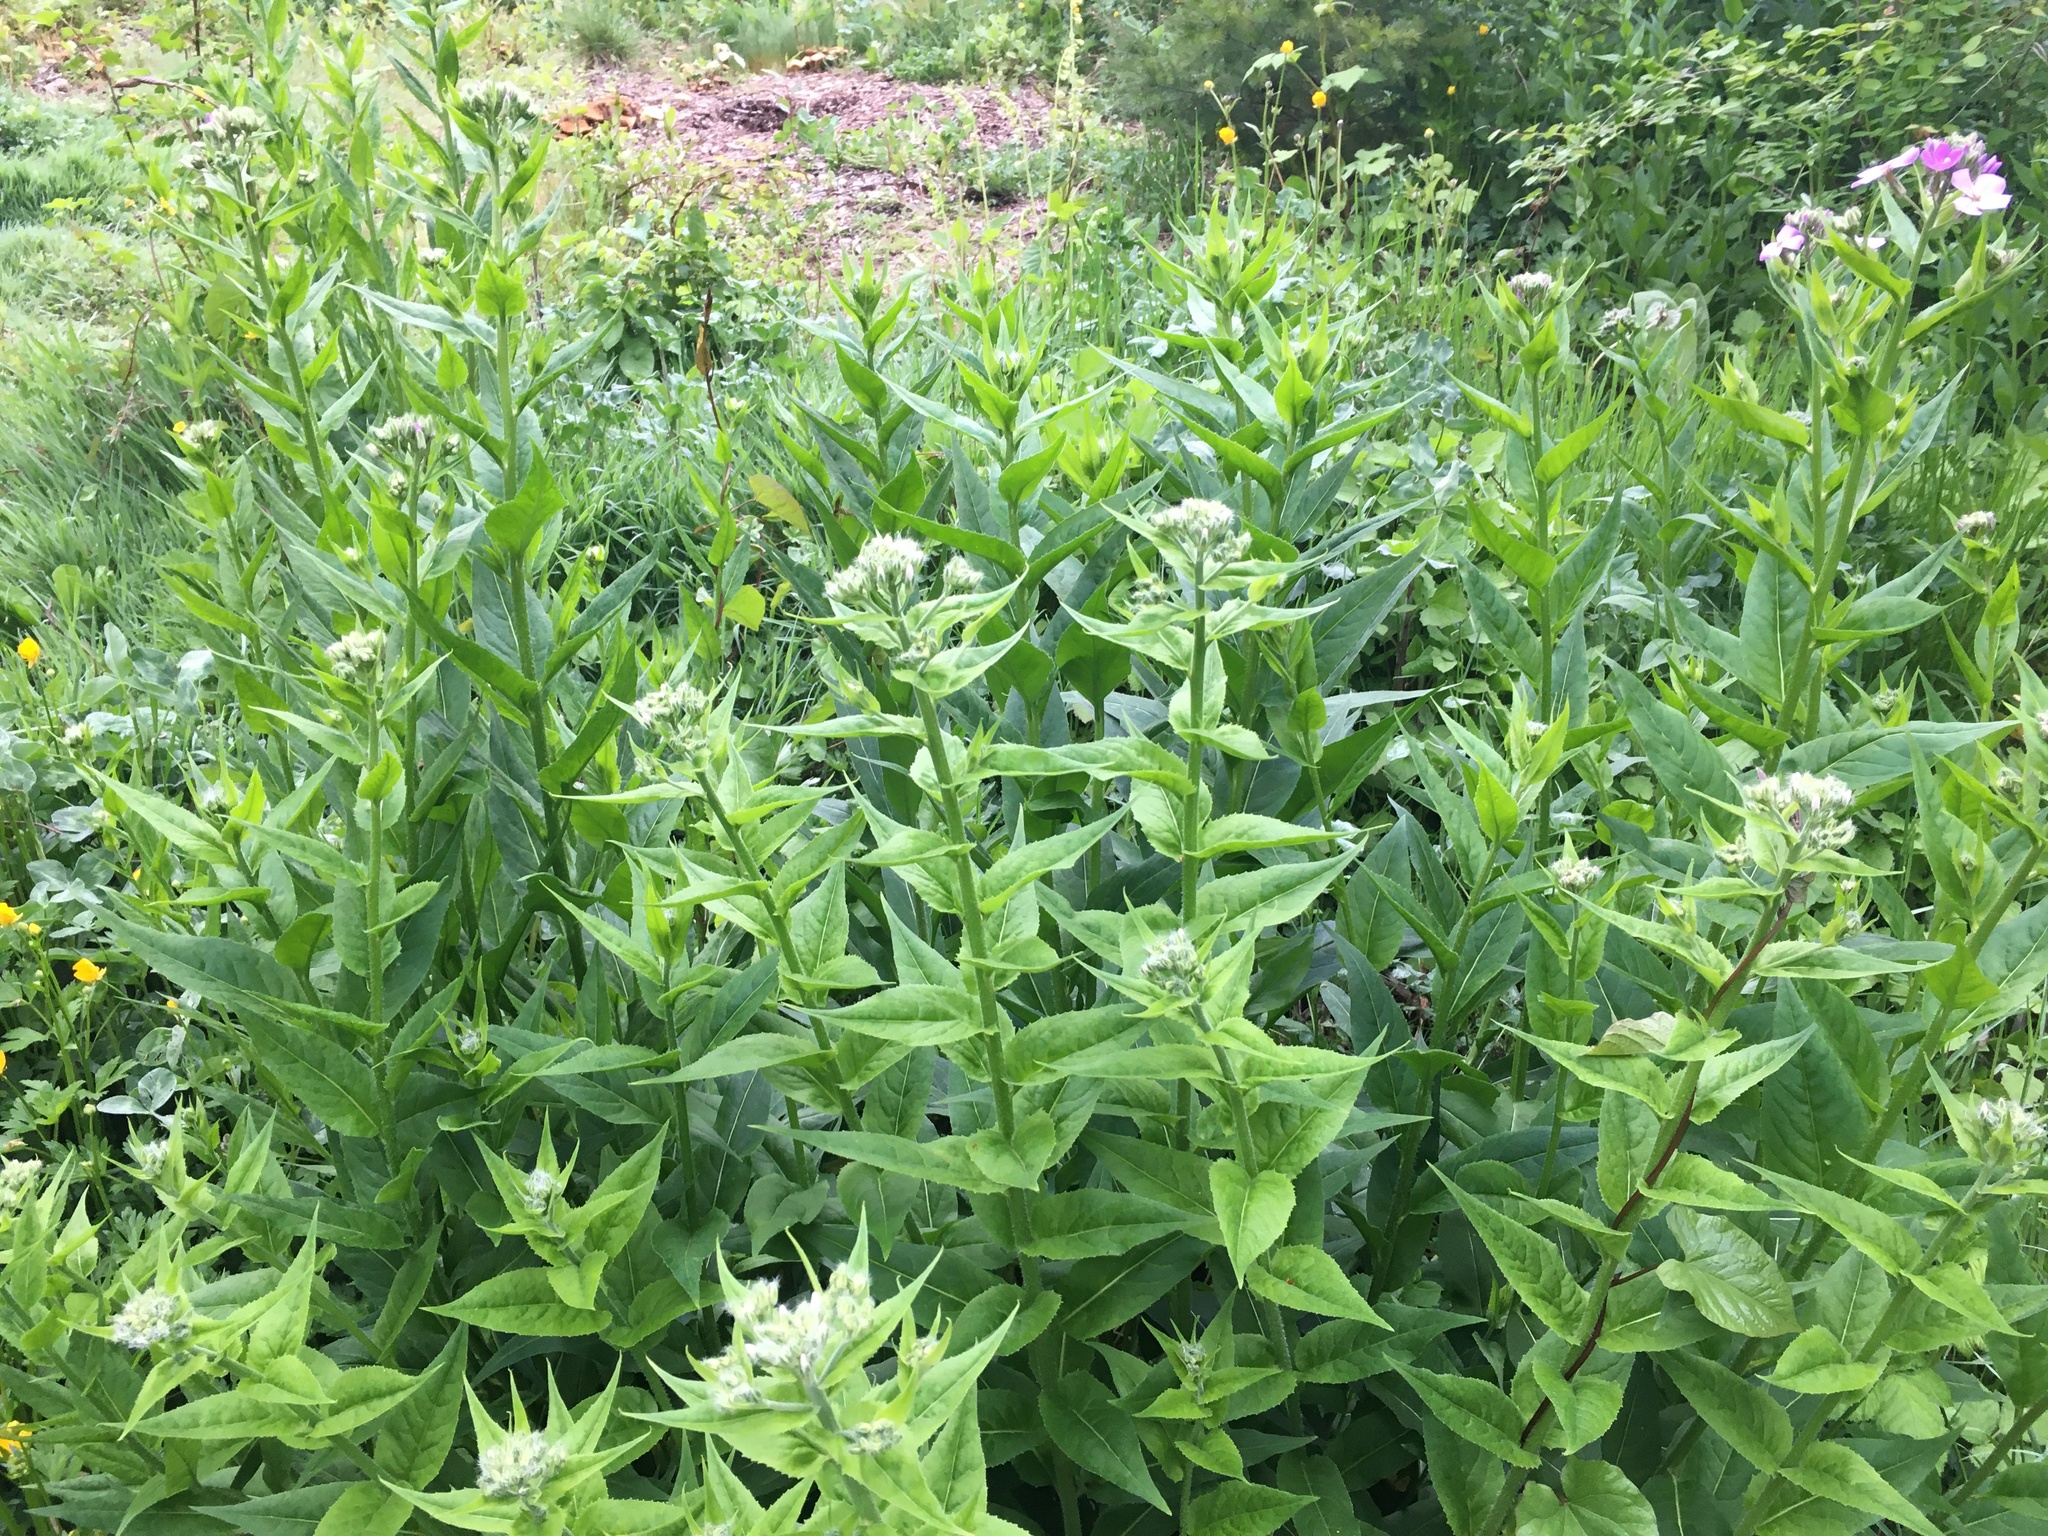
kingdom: Plantae
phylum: Tracheophyta
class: Magnoliopsida
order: Brassicales
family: Brassicaceae
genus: Hesperis
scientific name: Hesperis matronalis
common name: Dame's-violet
